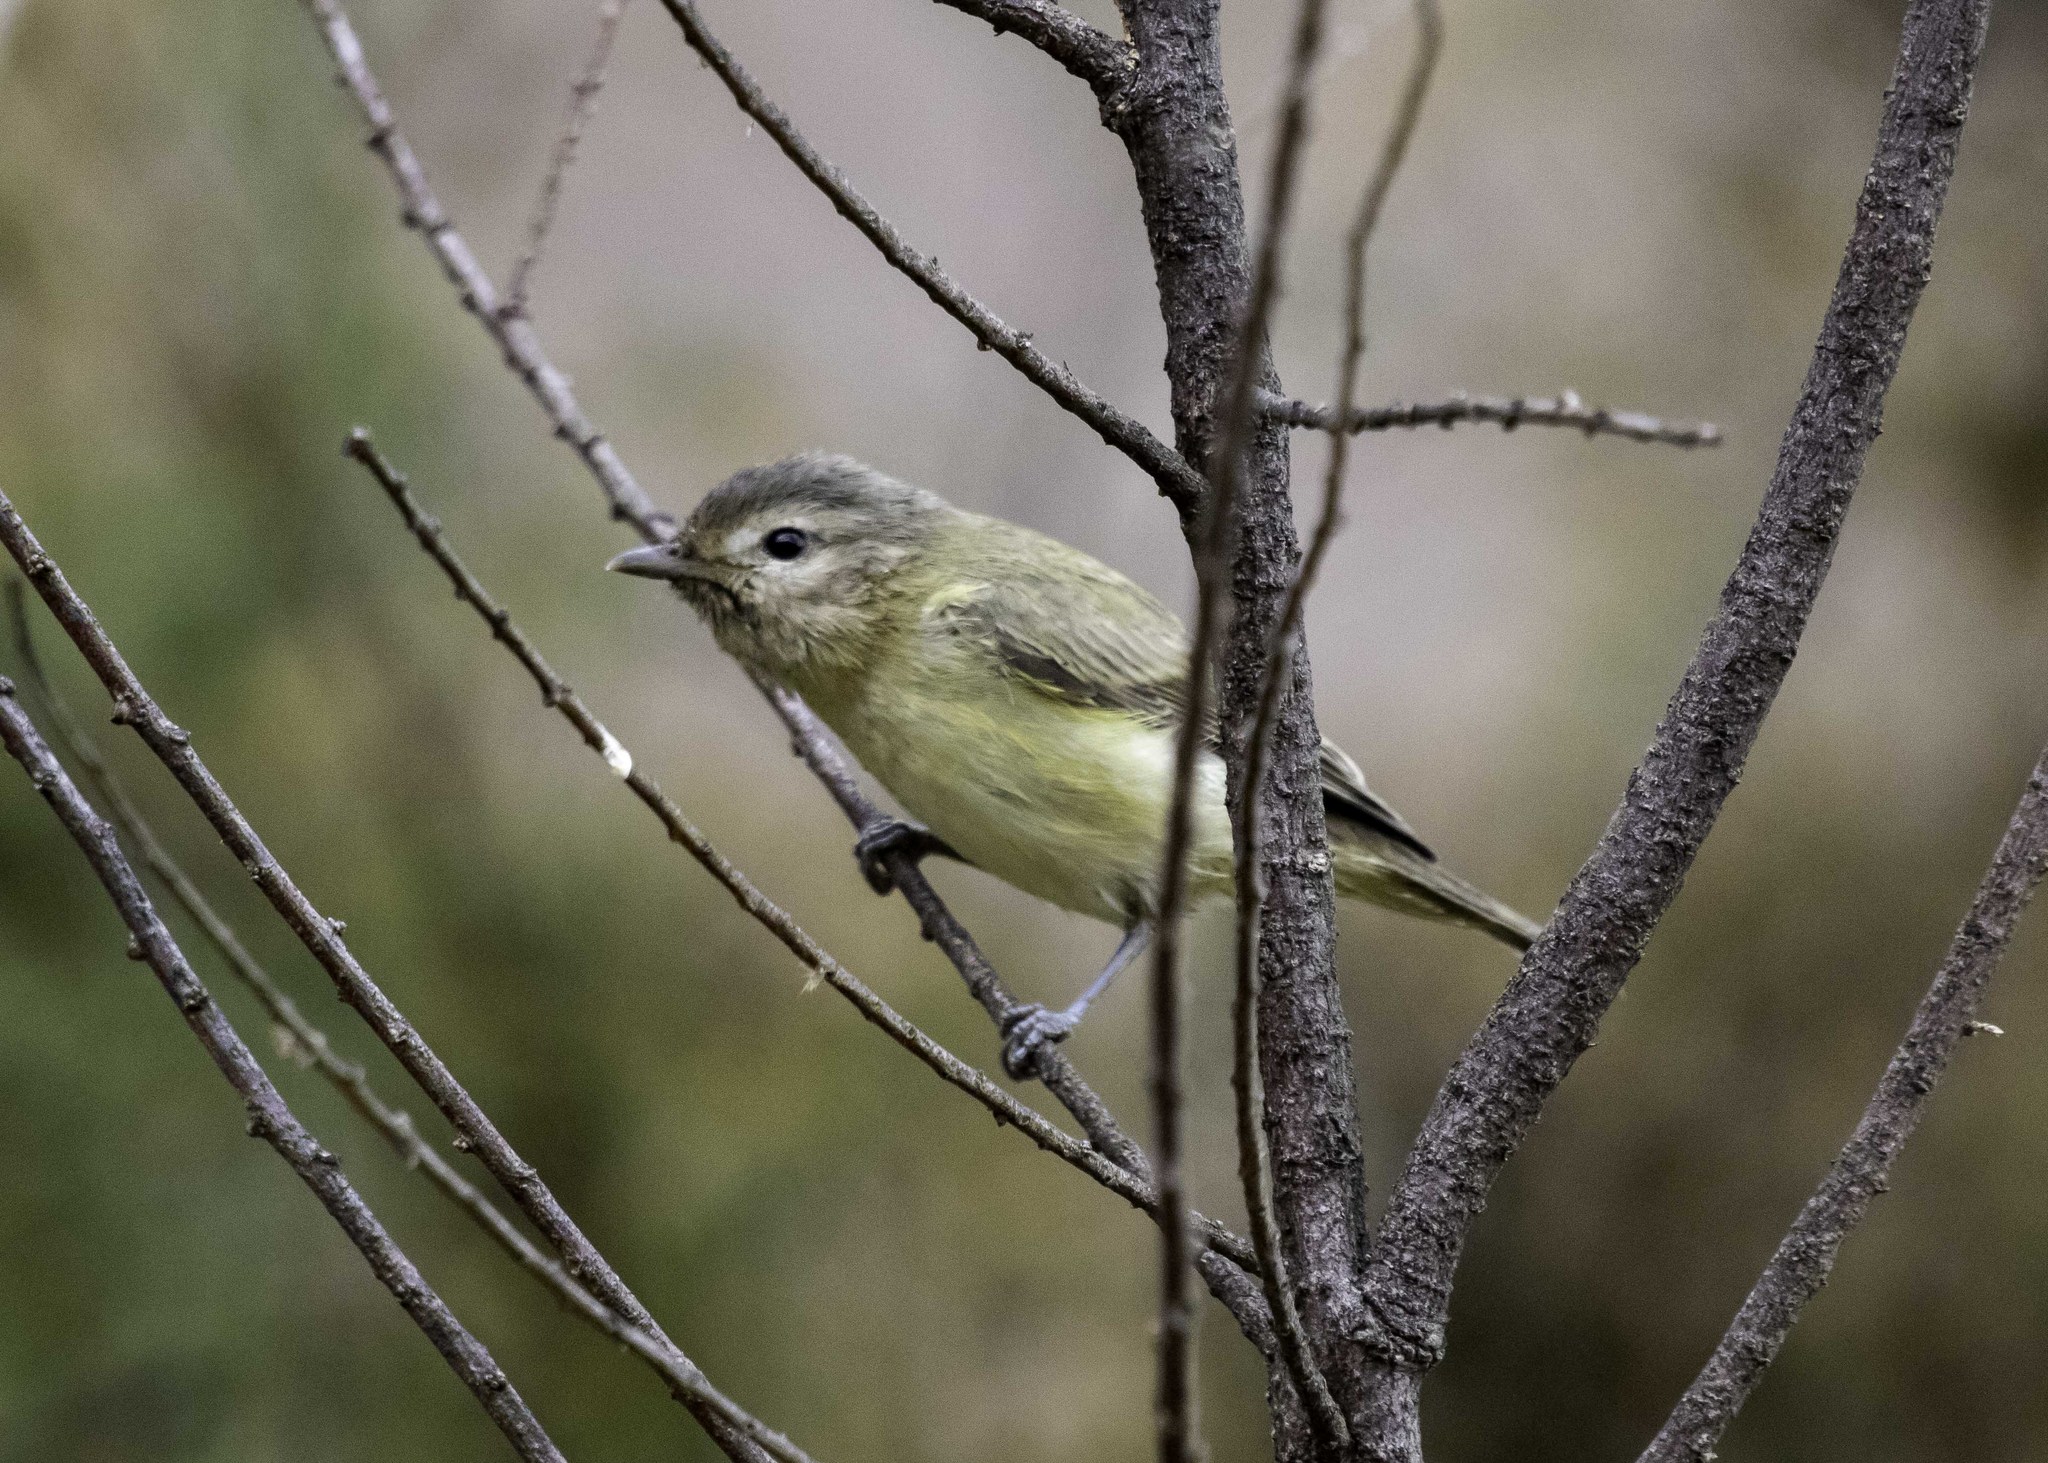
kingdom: Animalia
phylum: Chordata
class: Aves
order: Passeriformes
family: Vireonidae
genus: Vireo
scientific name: Vireo gilvus
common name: Warbling vireo
